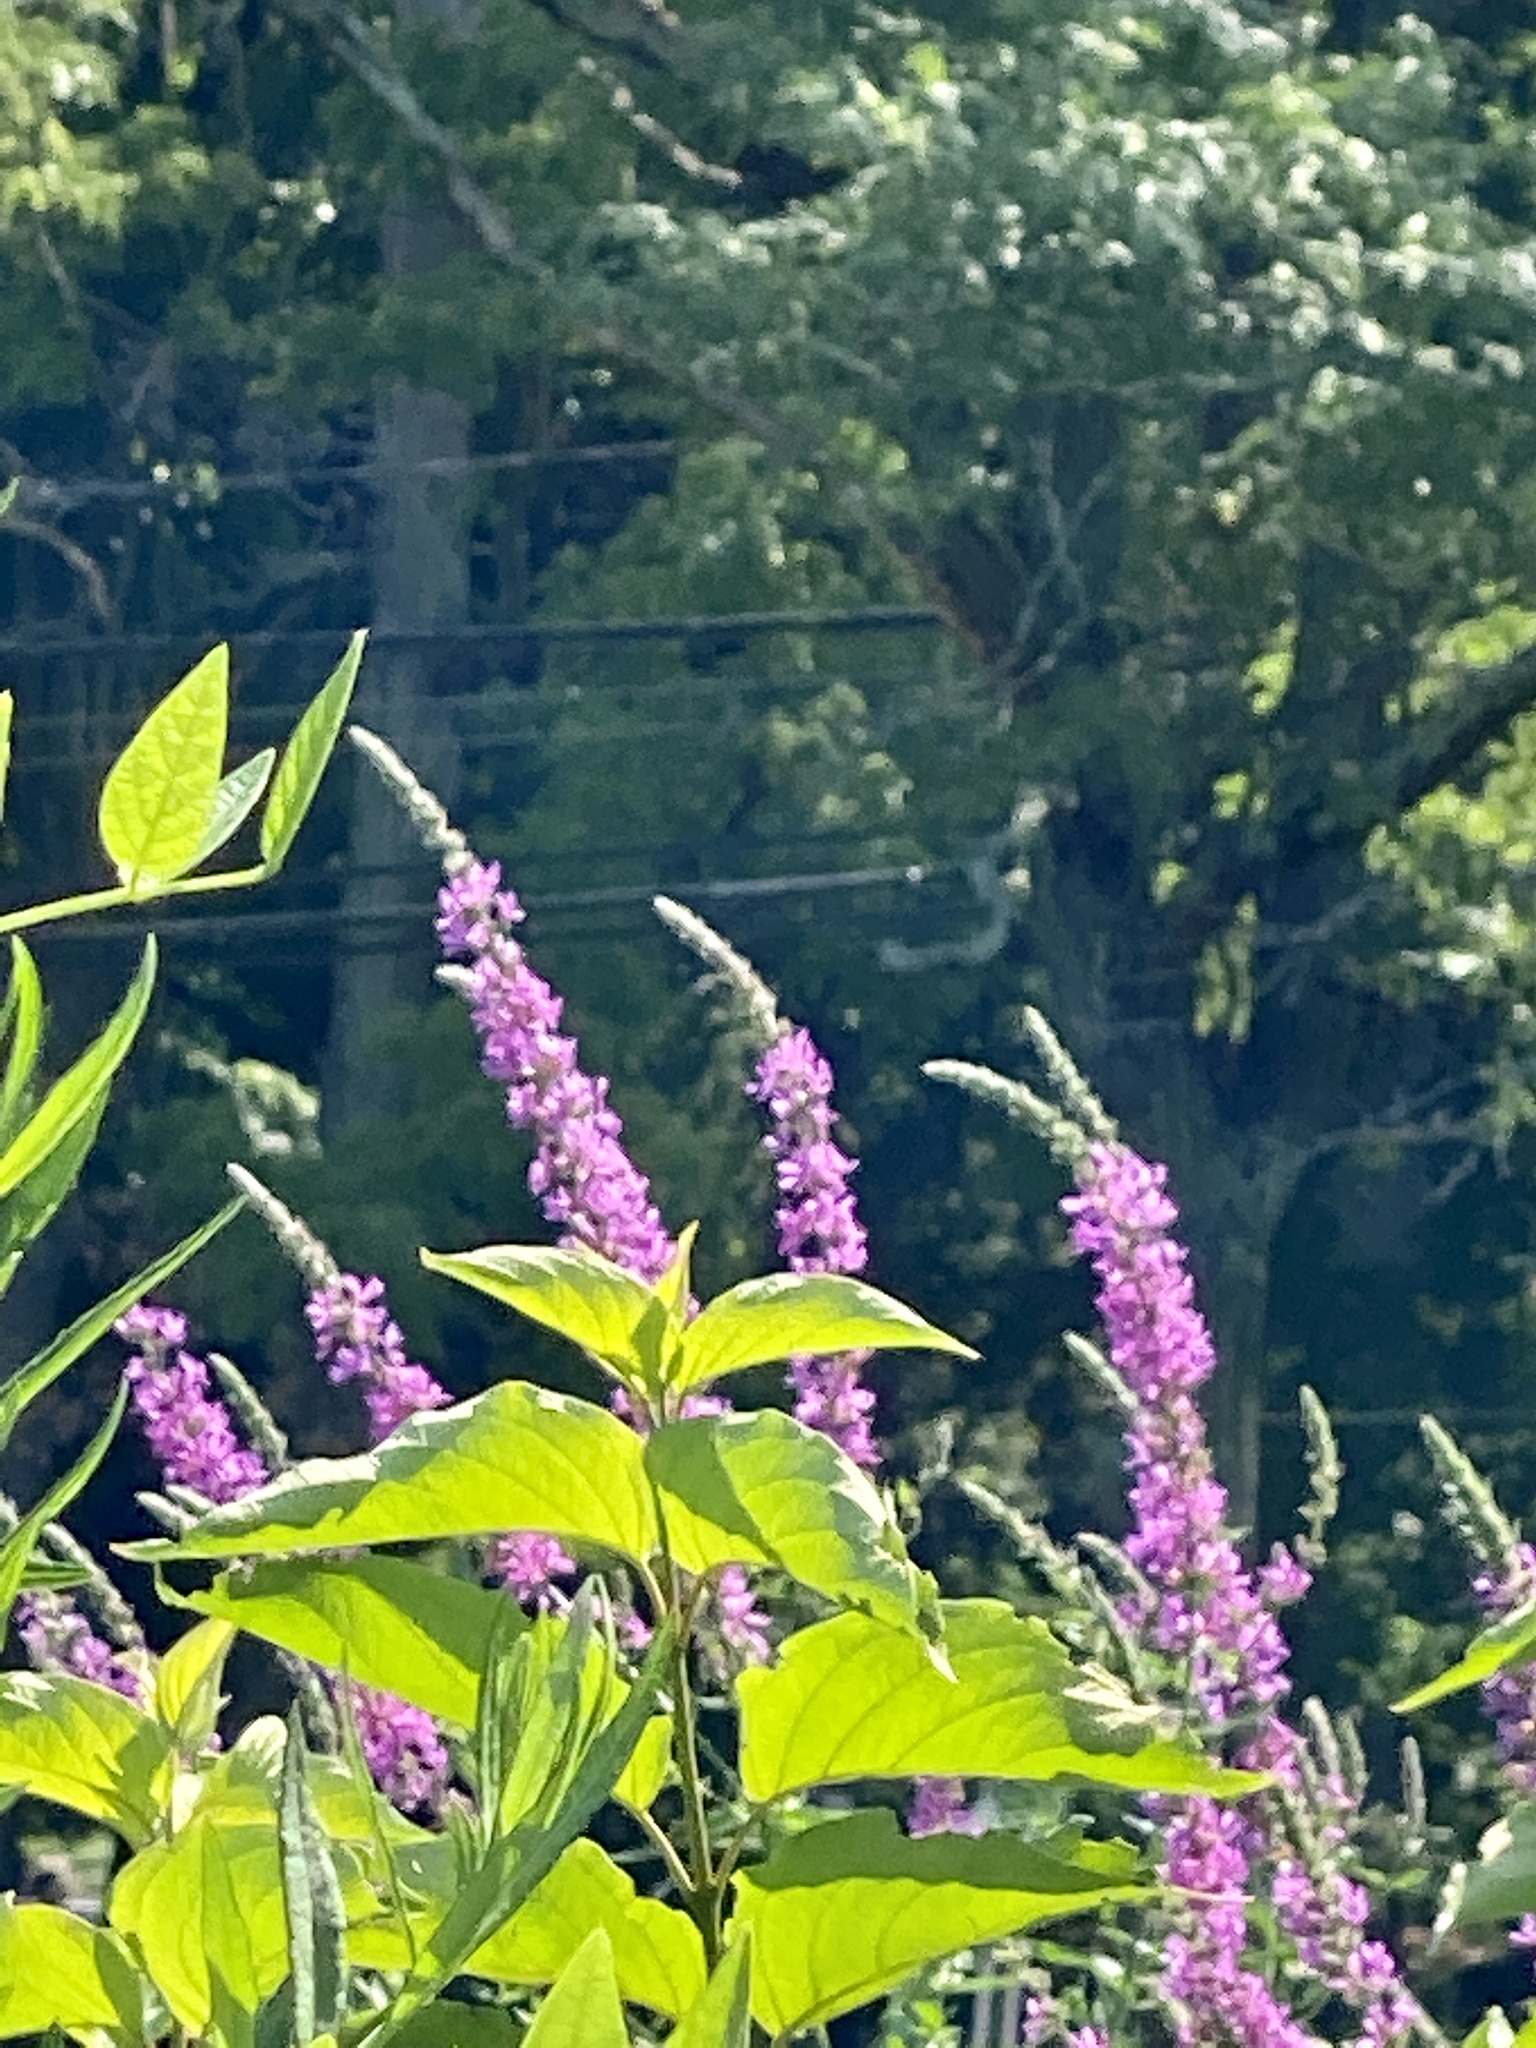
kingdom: Plantae
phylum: Tracheophyta
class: Magnoliopsida
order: Myrtales
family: Lythraceae
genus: Lythrum
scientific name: Lythrum salicaria
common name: Purple loosestrife
